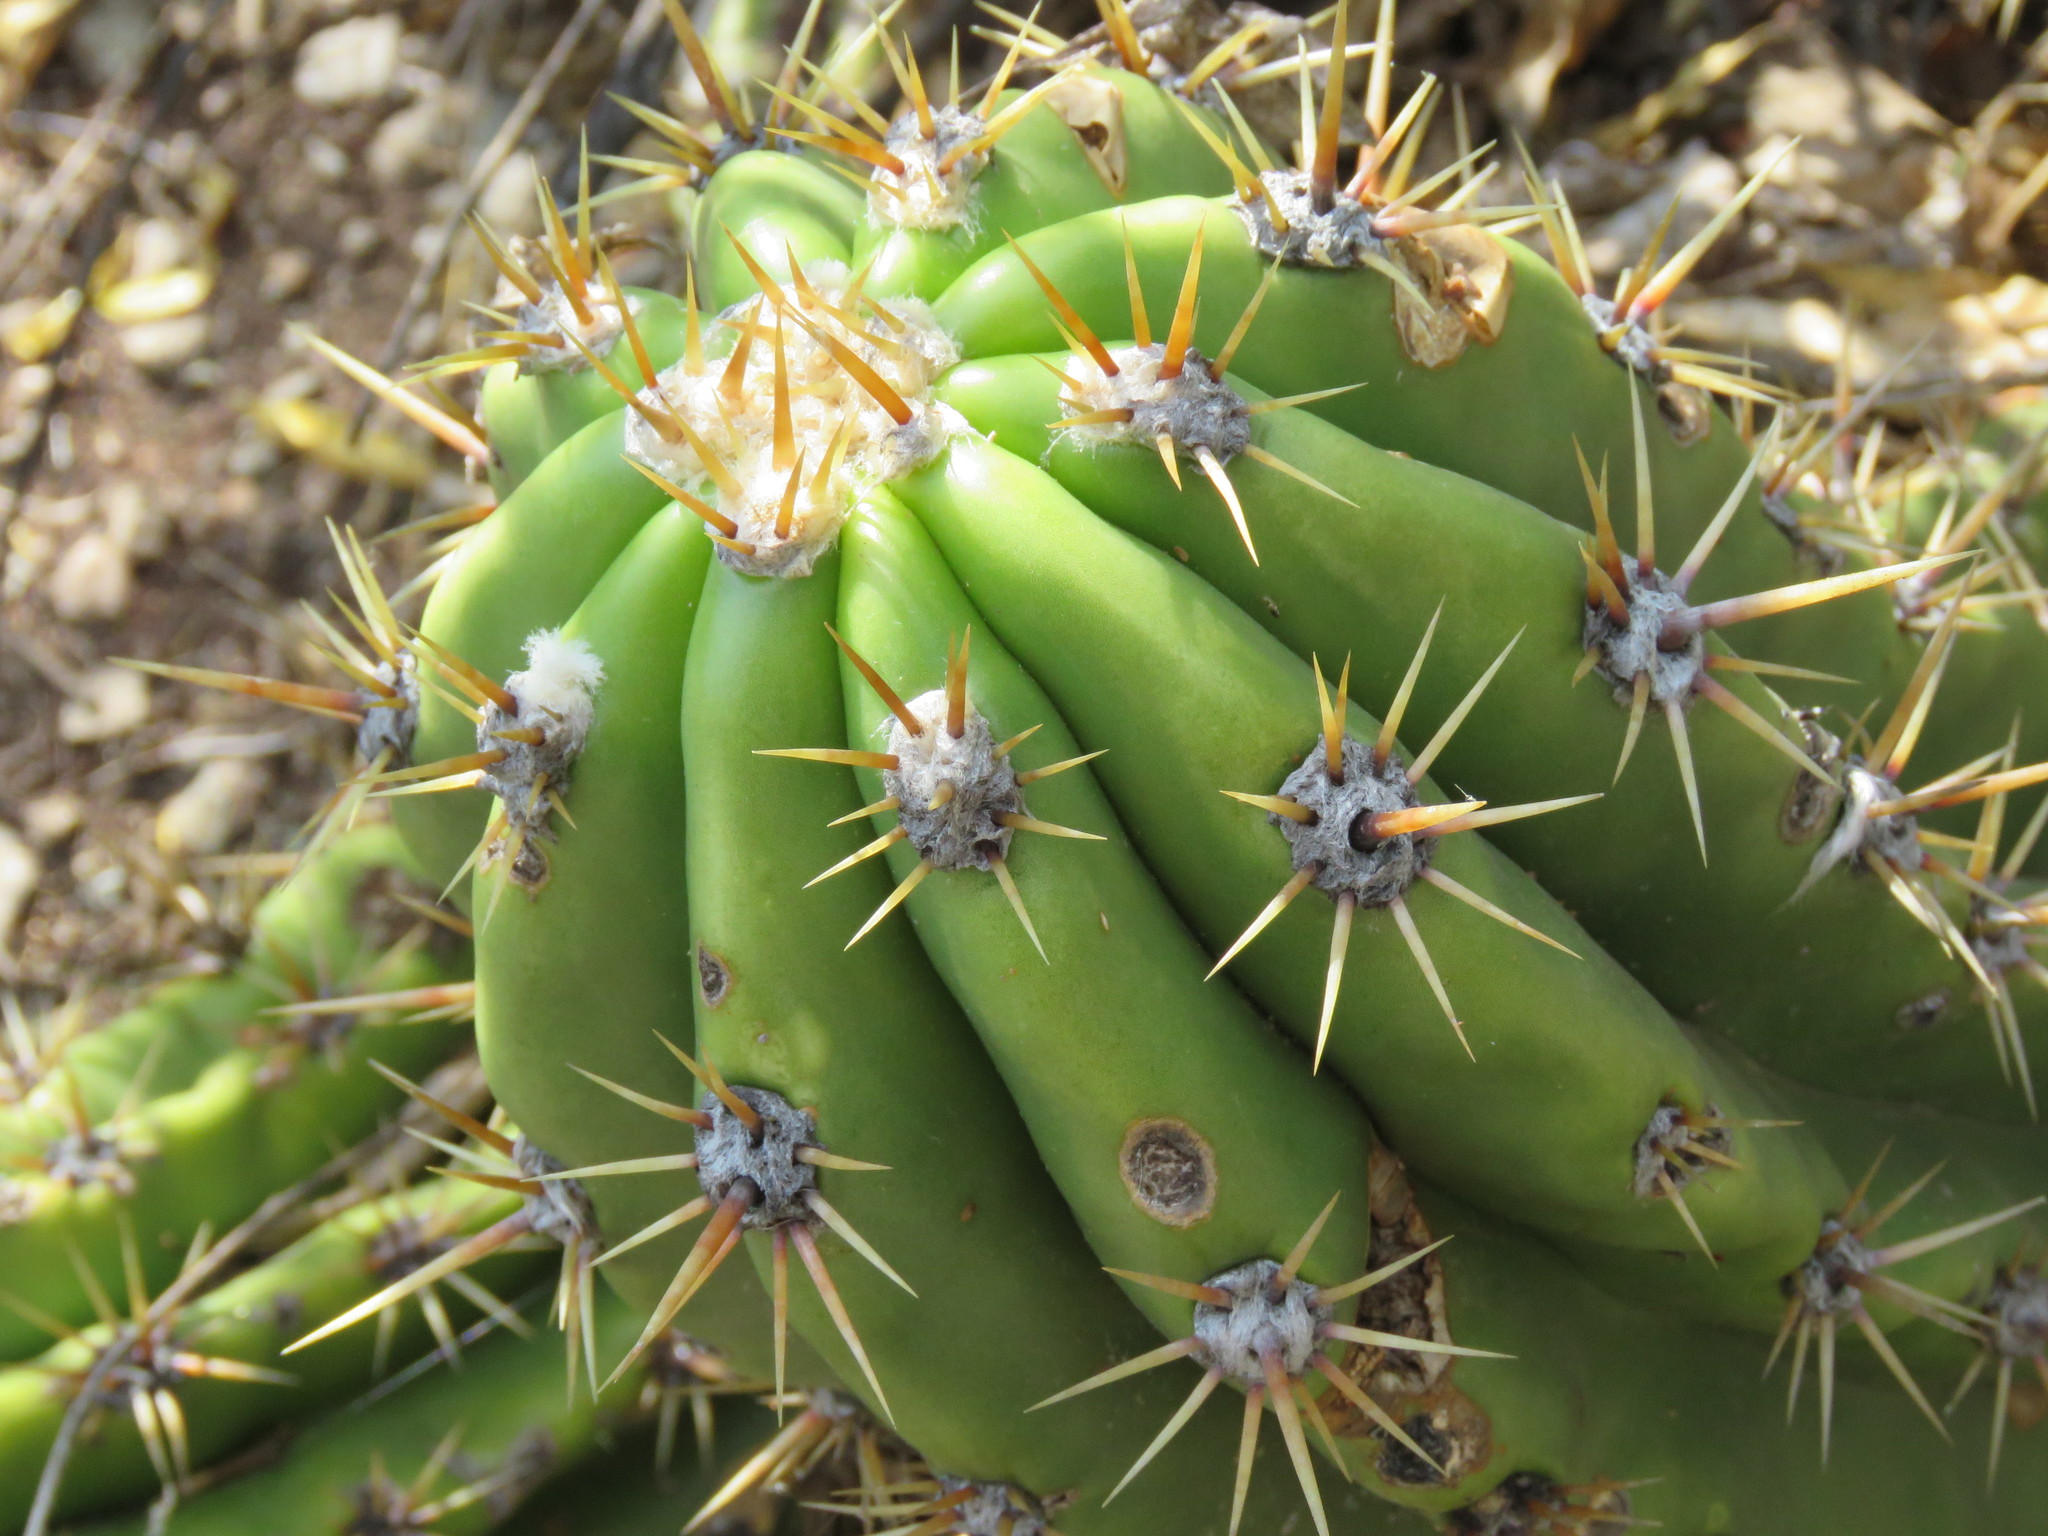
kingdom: Plantae
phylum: Tracheophyta
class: Magnoliopsida
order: Caryophyllales
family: Cactaceae
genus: Soehrensia
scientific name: Soehrensia candicans
